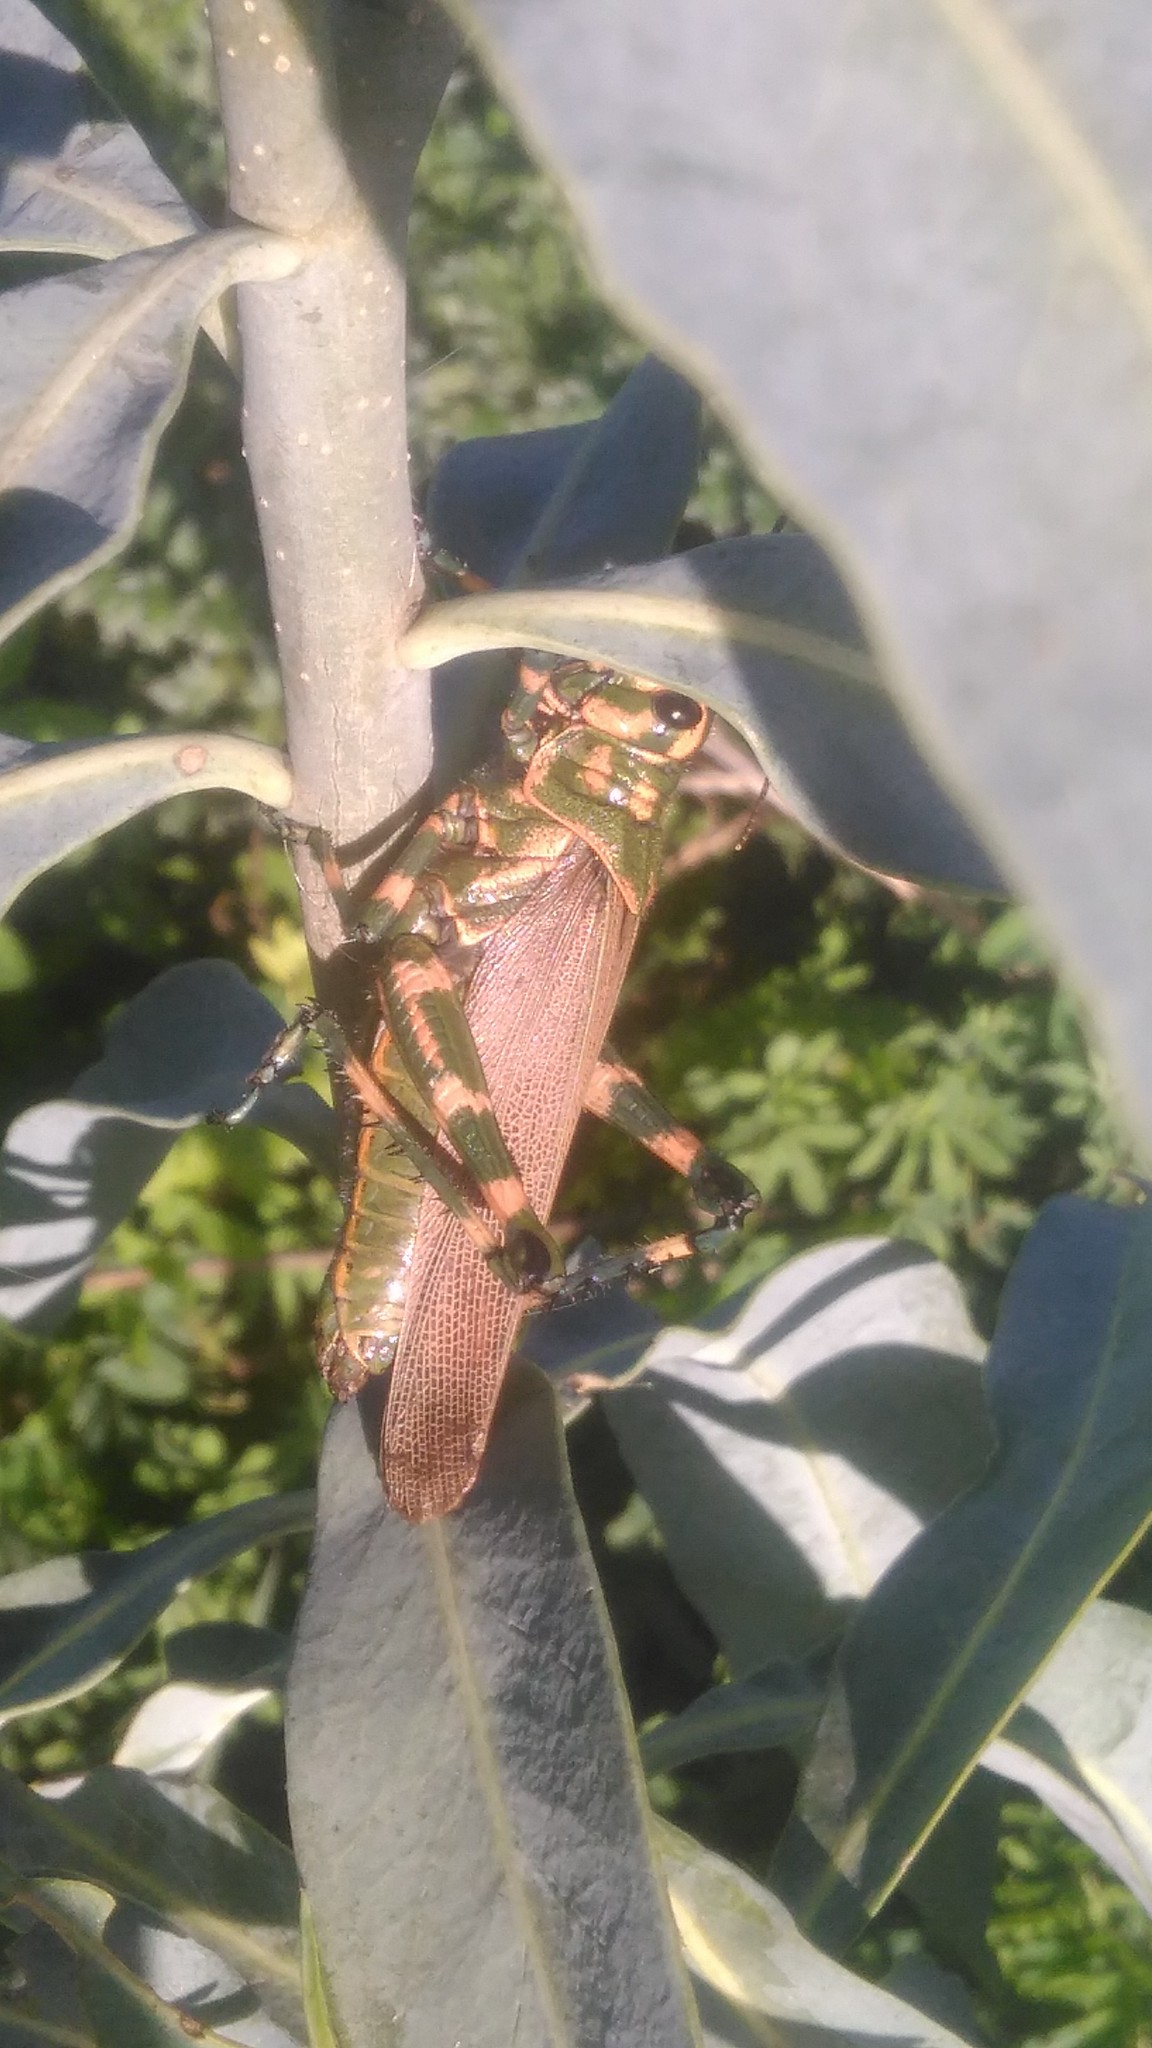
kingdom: Animalia
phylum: Arthropoda
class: Insecta
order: Orthoptera
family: Romaleidae
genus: Chromacris
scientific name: Chromacris speciosa
